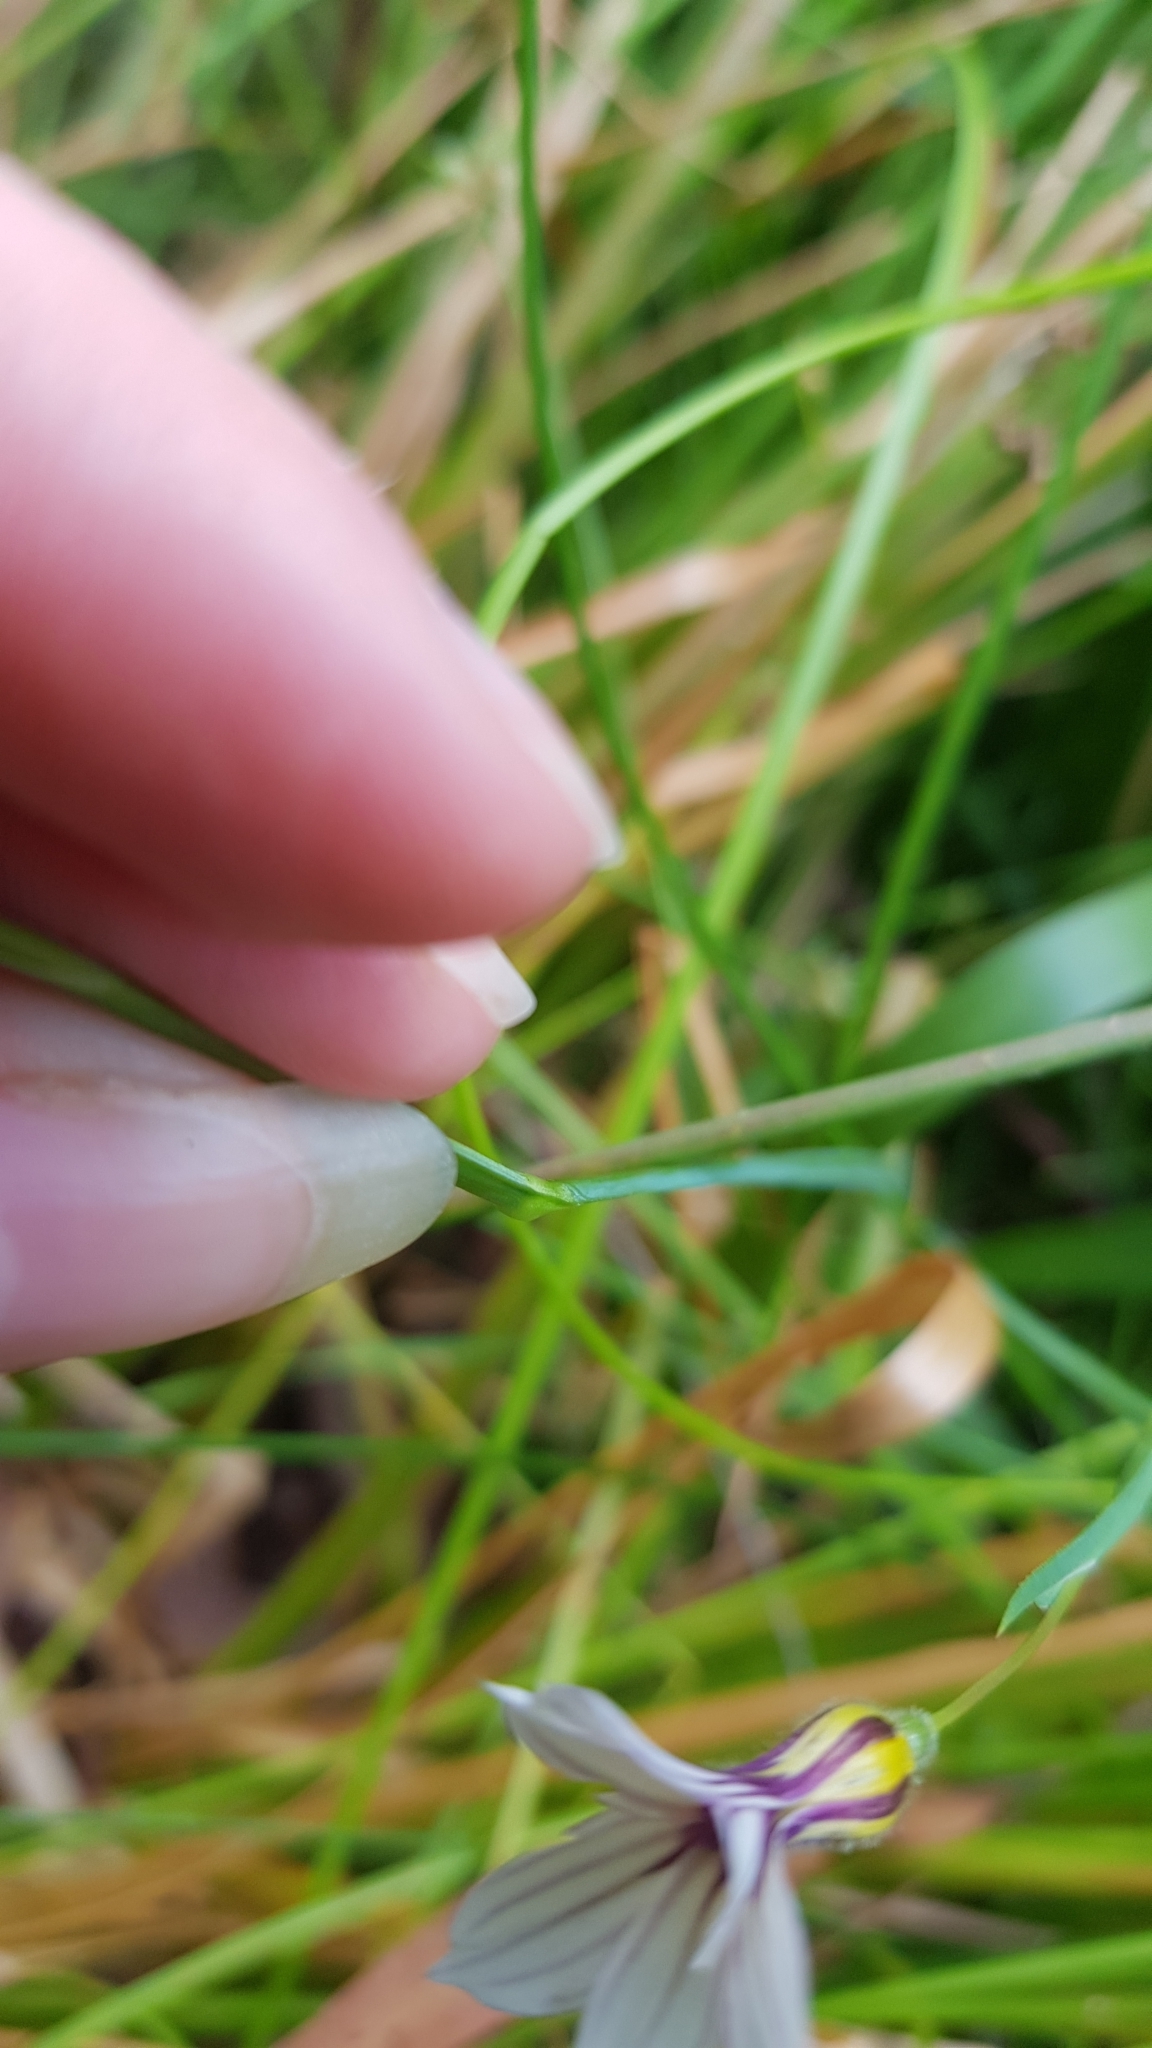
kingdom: Plantae
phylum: Tracheophyta
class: Liliopsida
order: Asparagales
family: Iridaceae
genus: Sisyrinchium
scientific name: Sisyrinchium micranthum
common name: Bermuda pigroot
